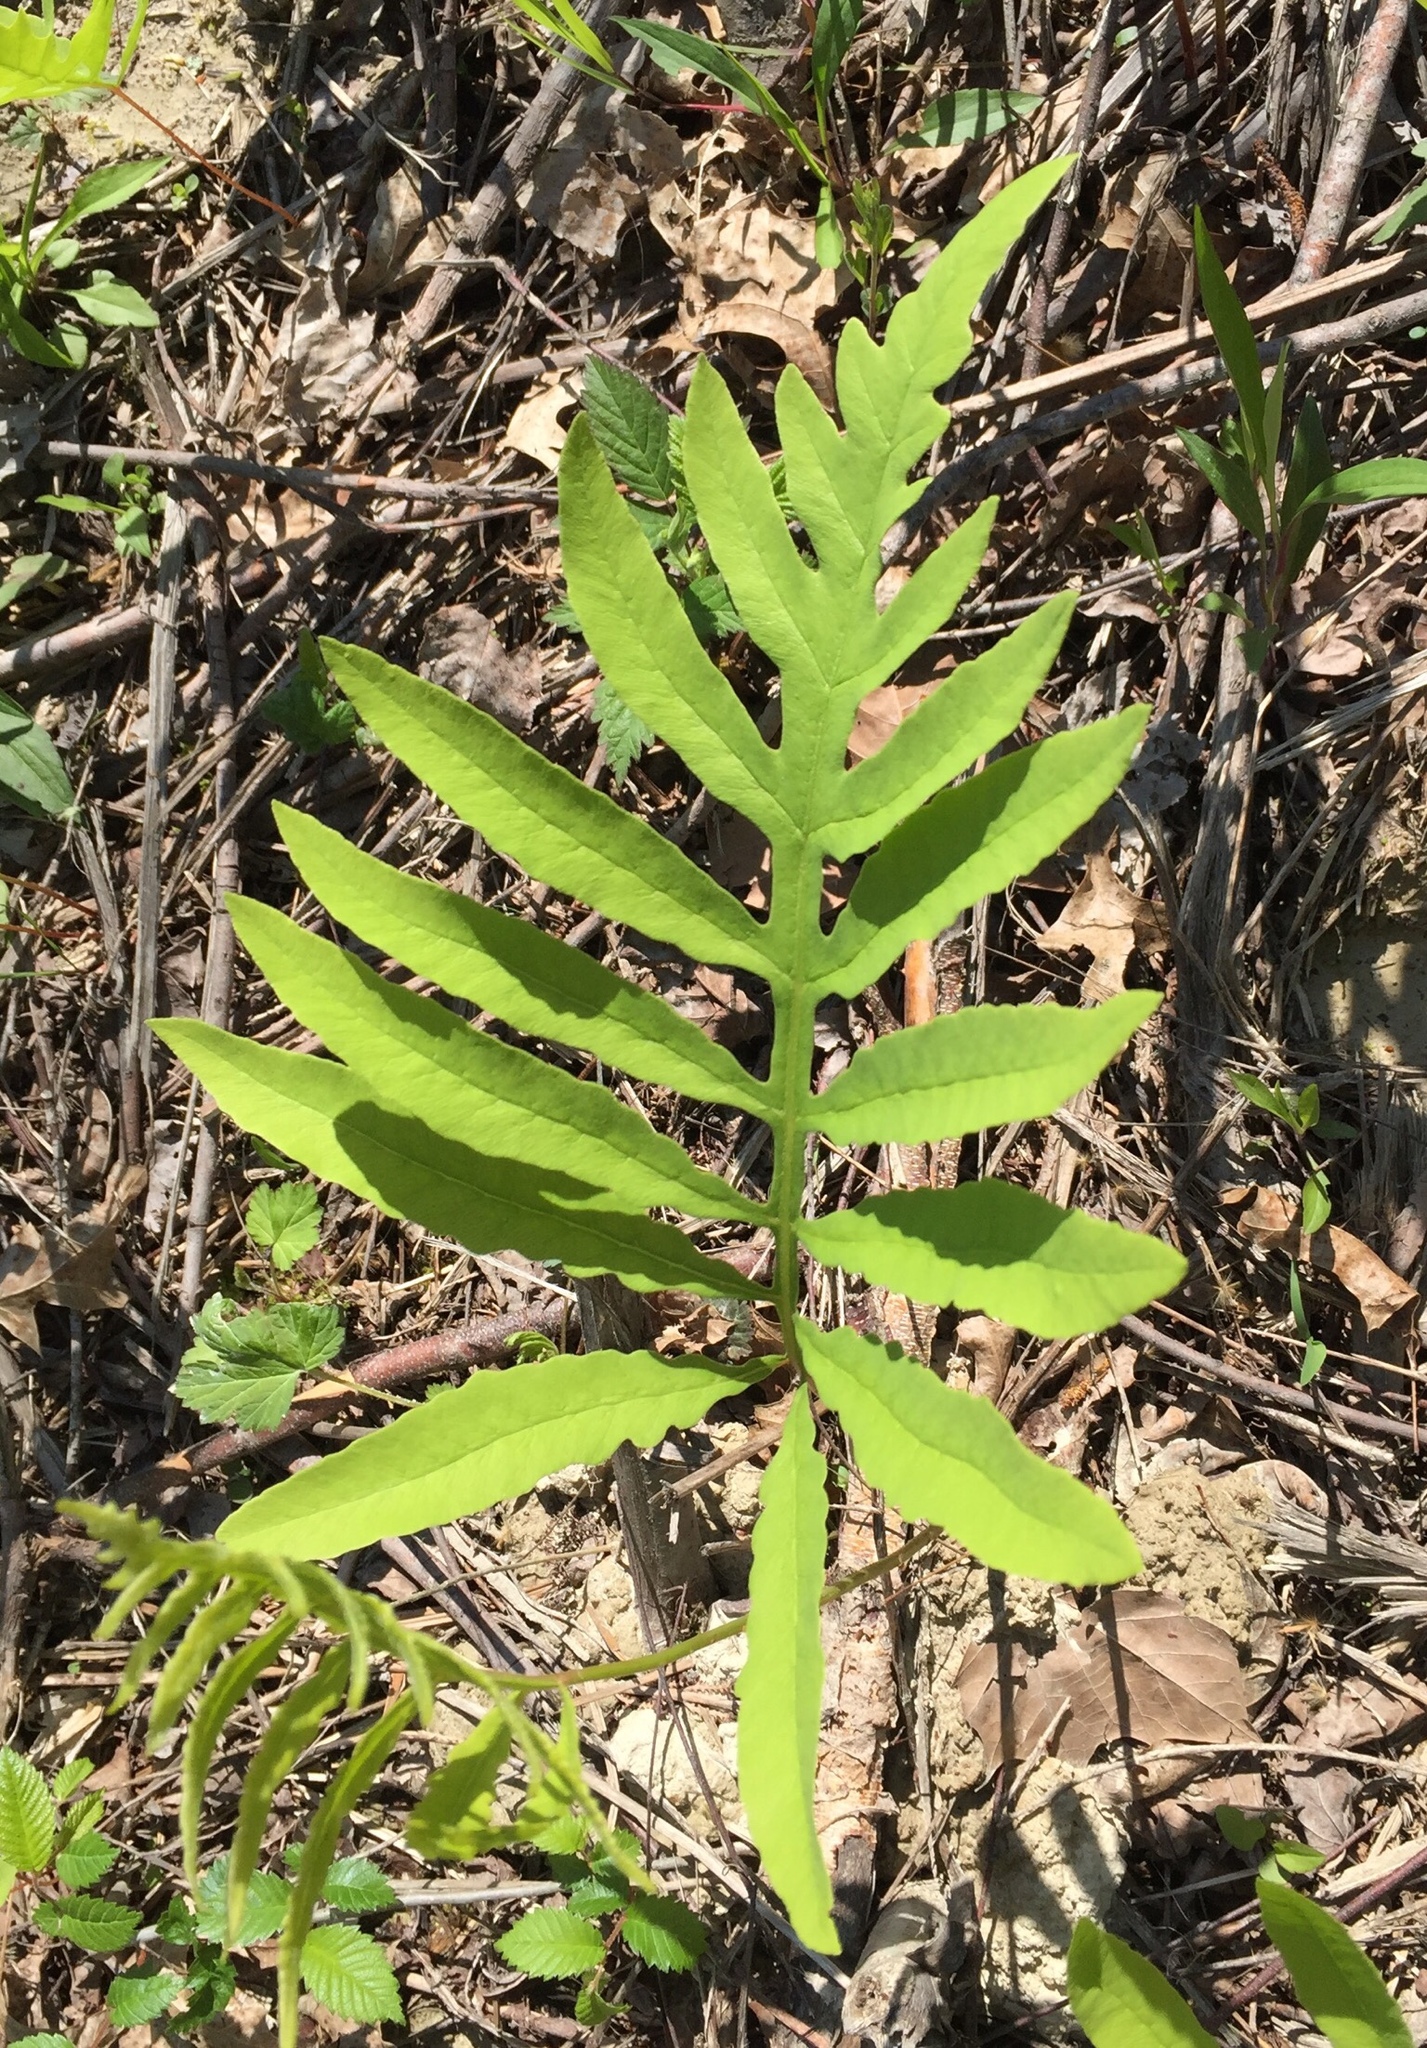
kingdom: Plantae
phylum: Tracheophyta
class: Polypodiopsida
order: Polypodiales
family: Onocleaceae
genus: Onoclea
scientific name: Onoclea sensibilis
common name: Sensitive fern
